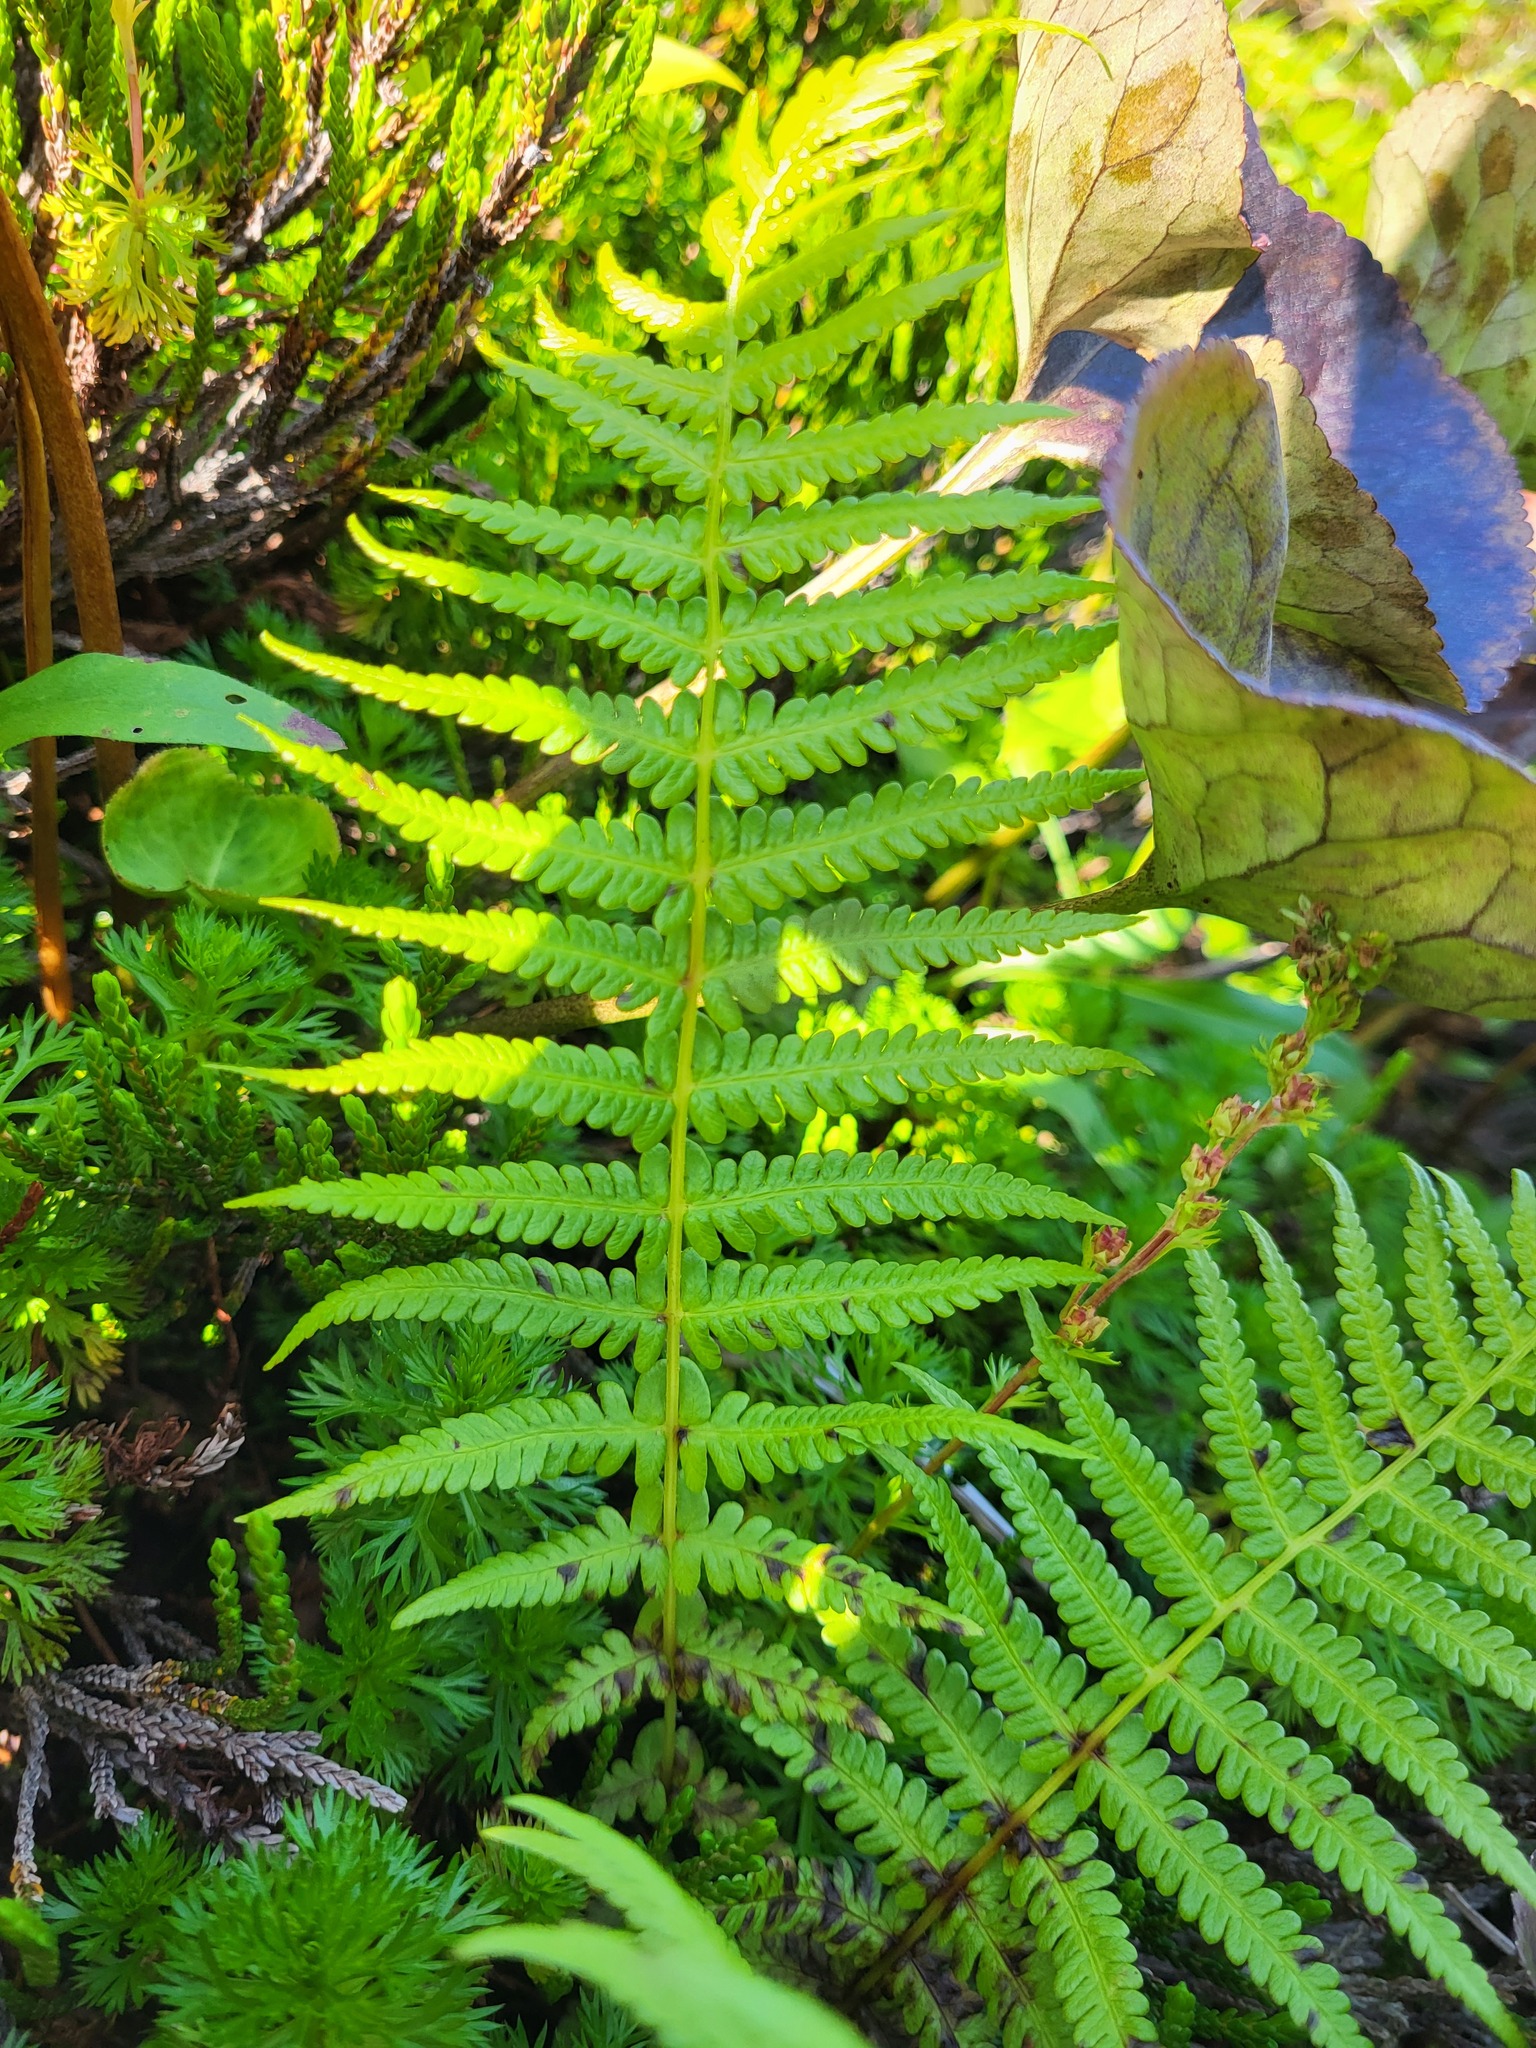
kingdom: Plantae
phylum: Tracheophyta
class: Polypodiopsida
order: Polypodiales
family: Thelypteridaceae
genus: Oreopteris
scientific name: Oreopteris quelpartensis
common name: Mountain fern
